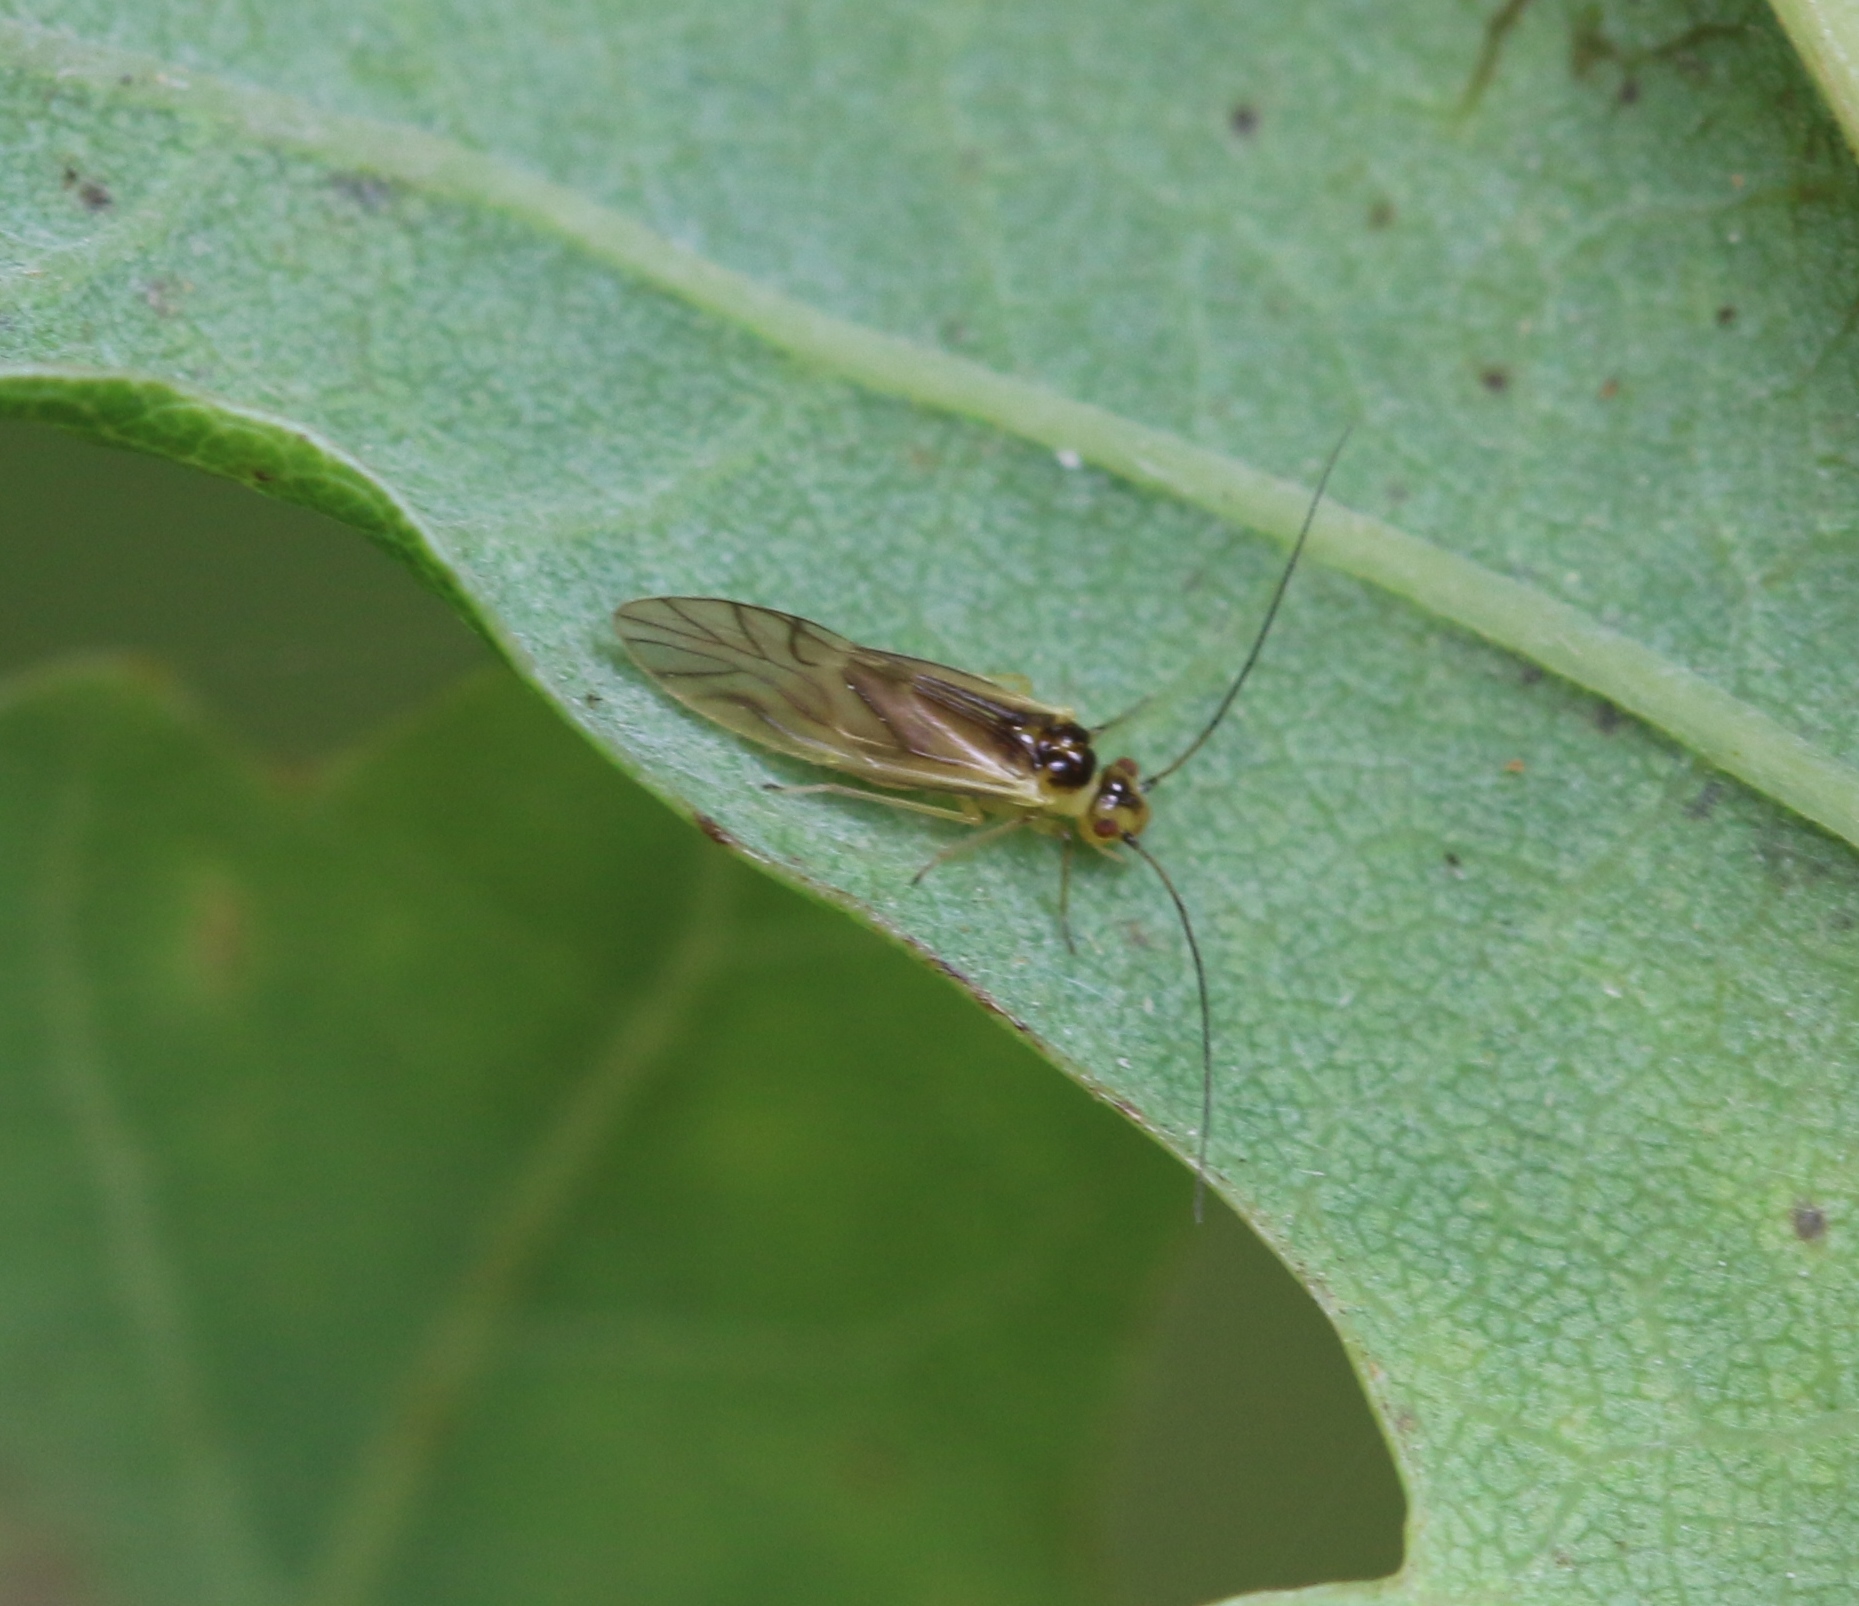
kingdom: Animalia
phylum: Arthropoda
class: Insecta
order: Psocodea
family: Caeciliusidae
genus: Valenzuela
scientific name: Valenzuela flavidus
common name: Yellow barklouse
